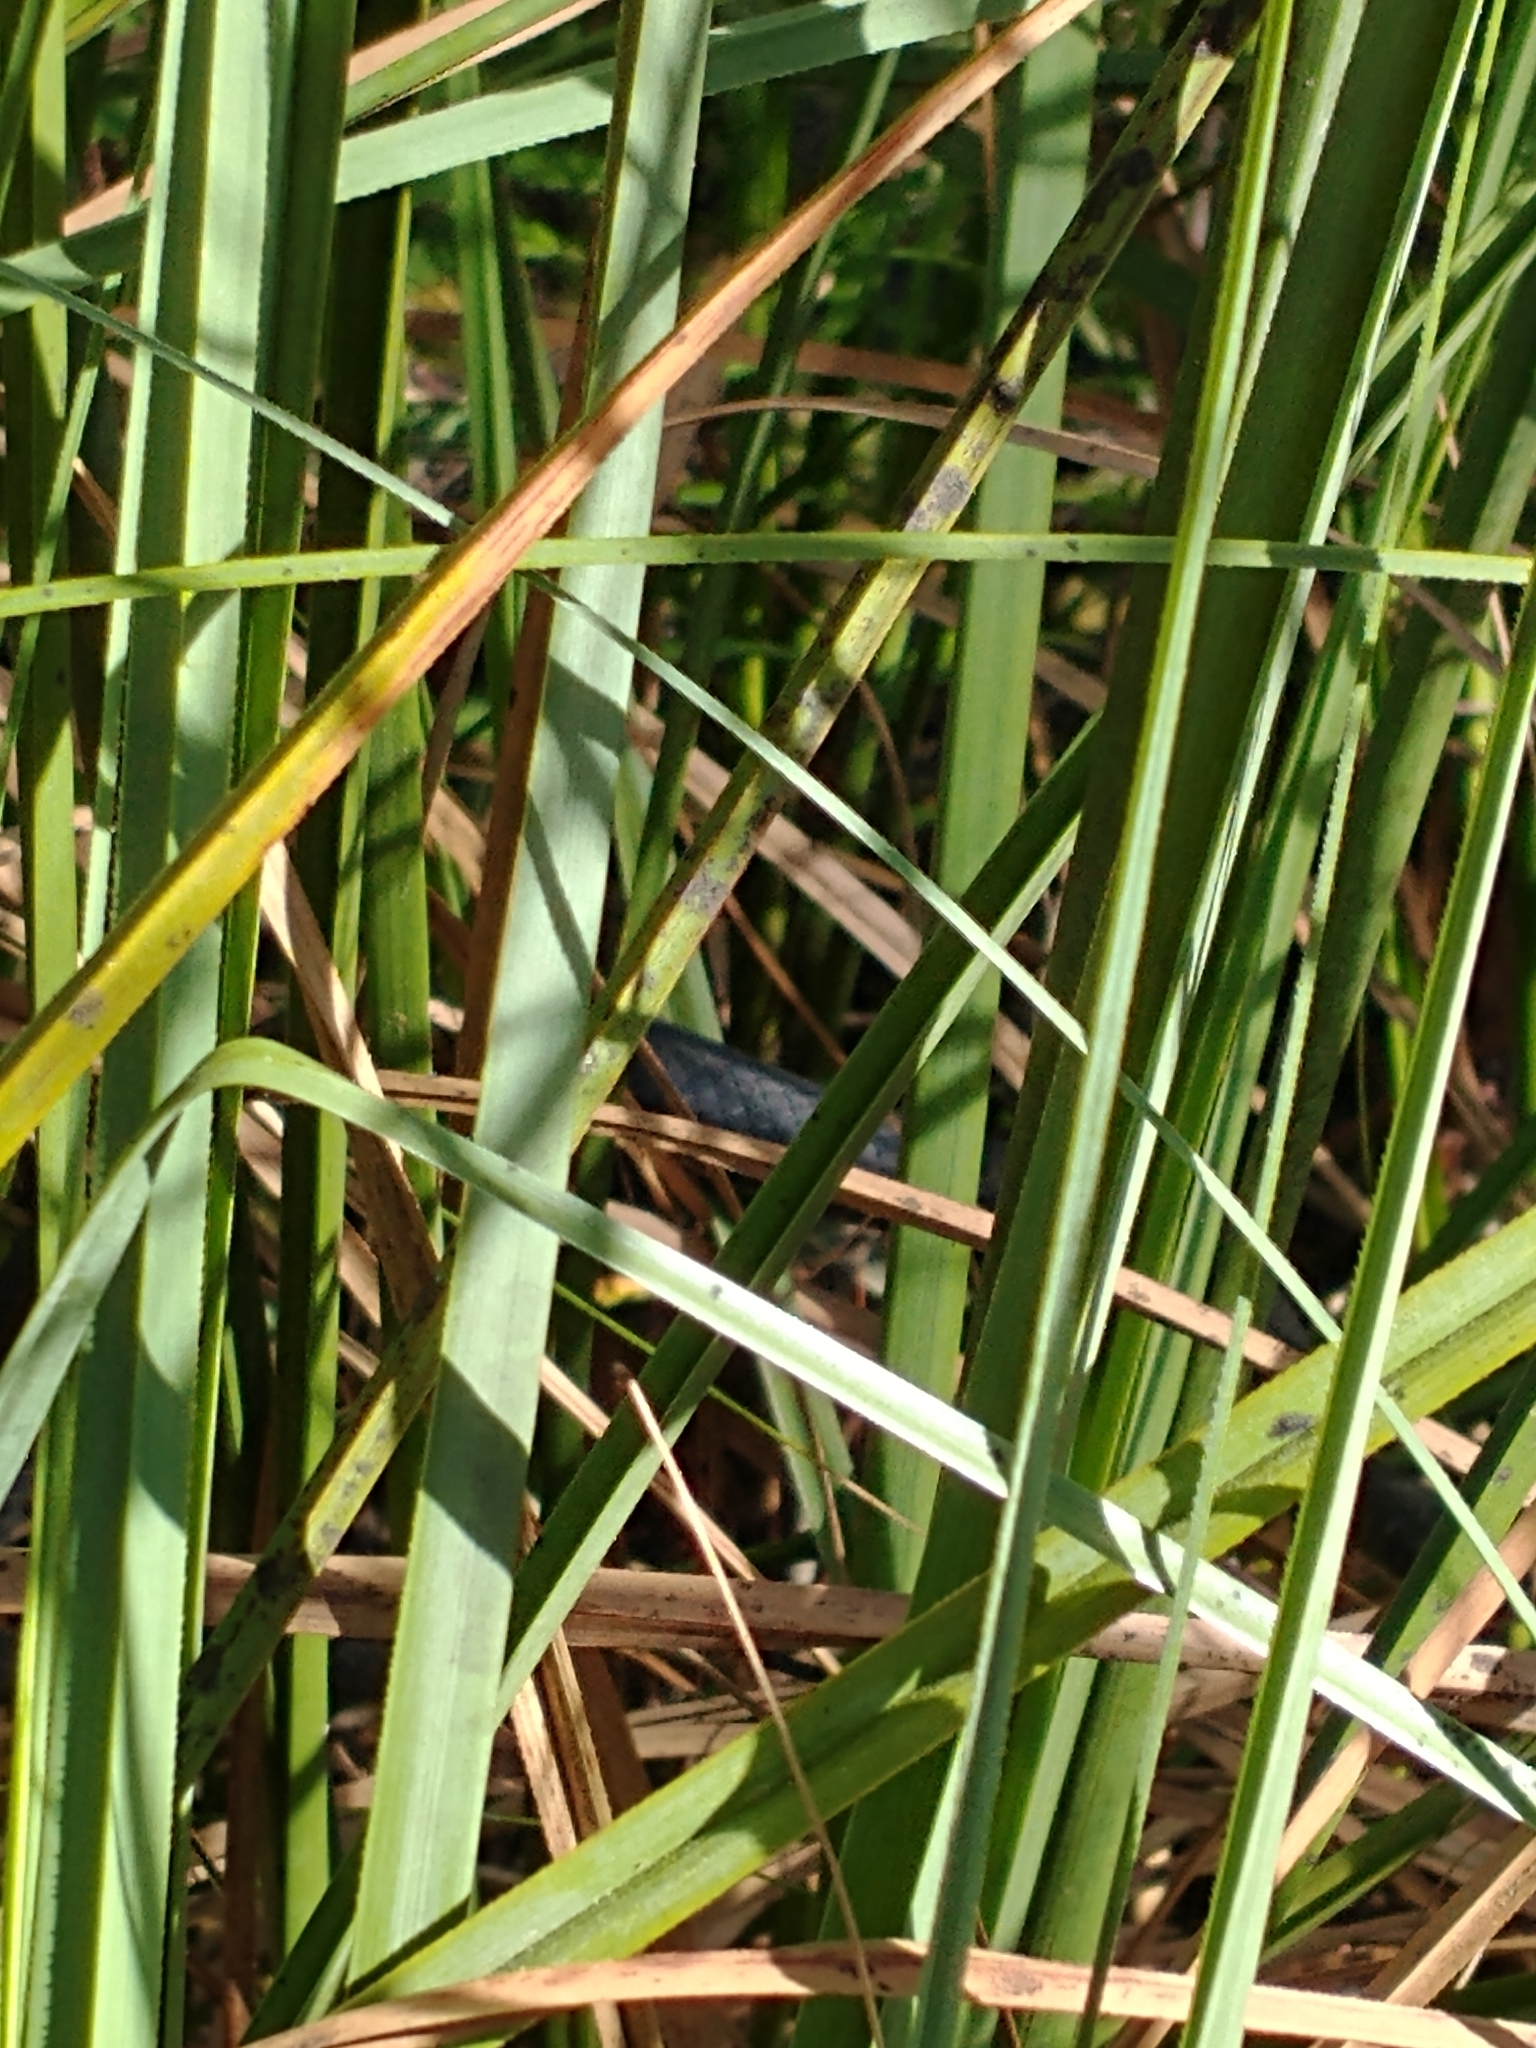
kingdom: Animalia
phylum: Chordata
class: Squamata
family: Colubridae
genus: Coluber
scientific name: Coluber constrictor
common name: Eastern racer
